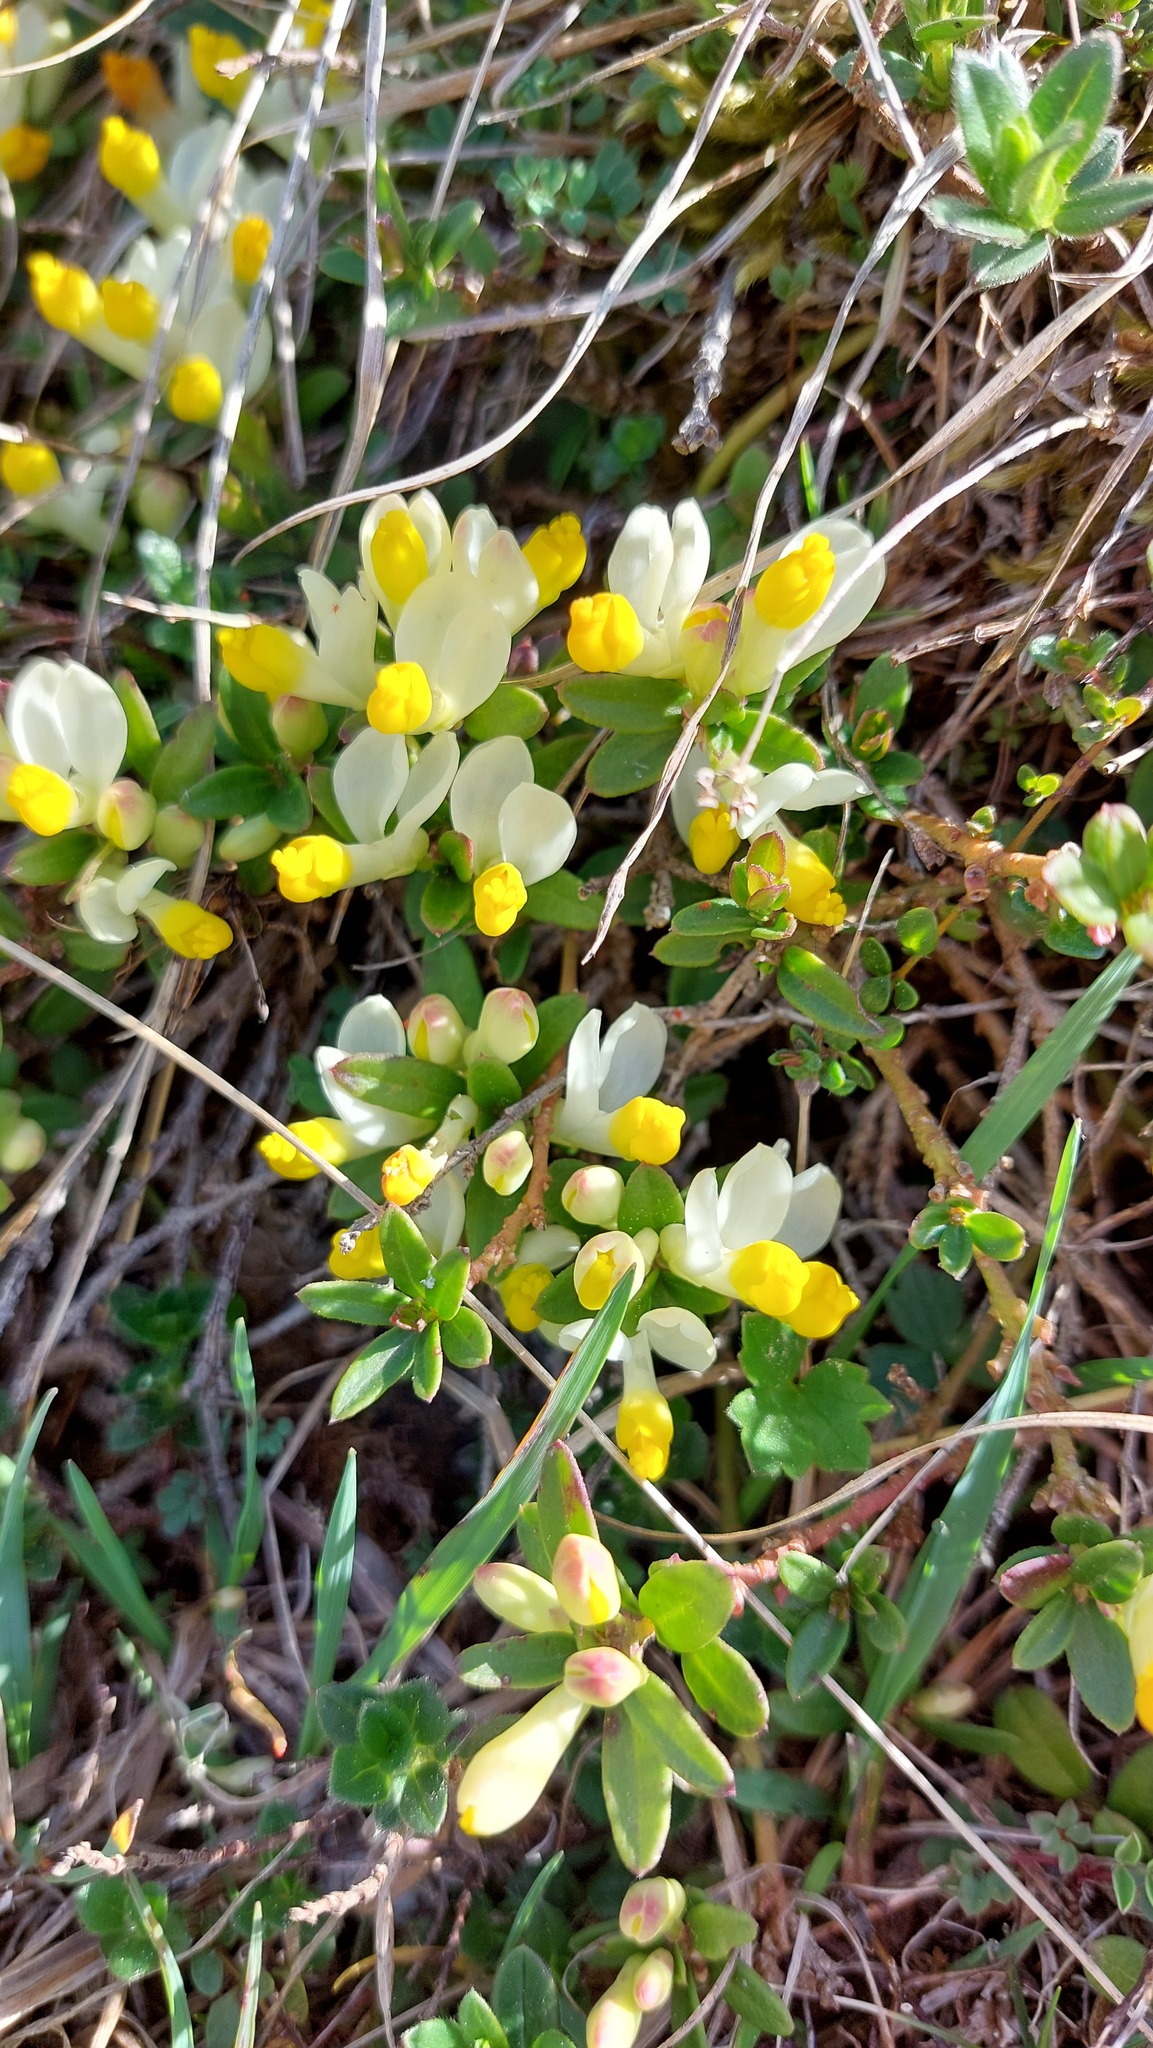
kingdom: Plantae
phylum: Tracheophyta
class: Magnoliopsida
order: Fabales
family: Polygalaceae
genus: Polygaloides
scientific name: Polygaloides chamaebuxus
